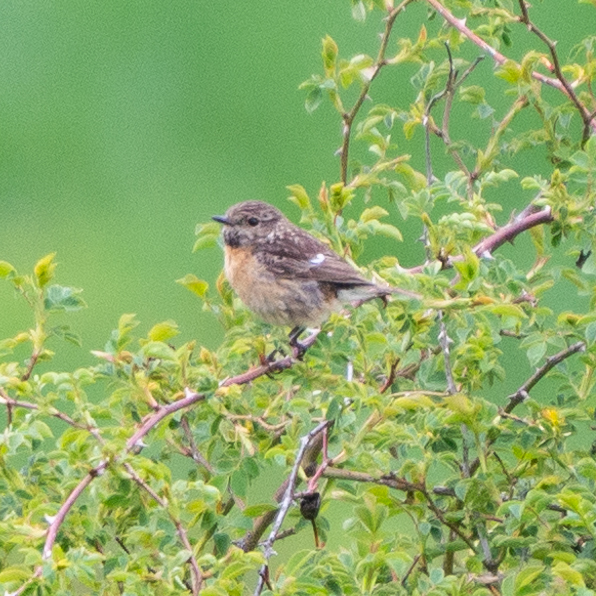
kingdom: Animalia
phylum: Chordata
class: Aves
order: Passeriformes
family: Muscicapidae
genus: Saxicola
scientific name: Saxicola rubicola
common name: European stonechat
